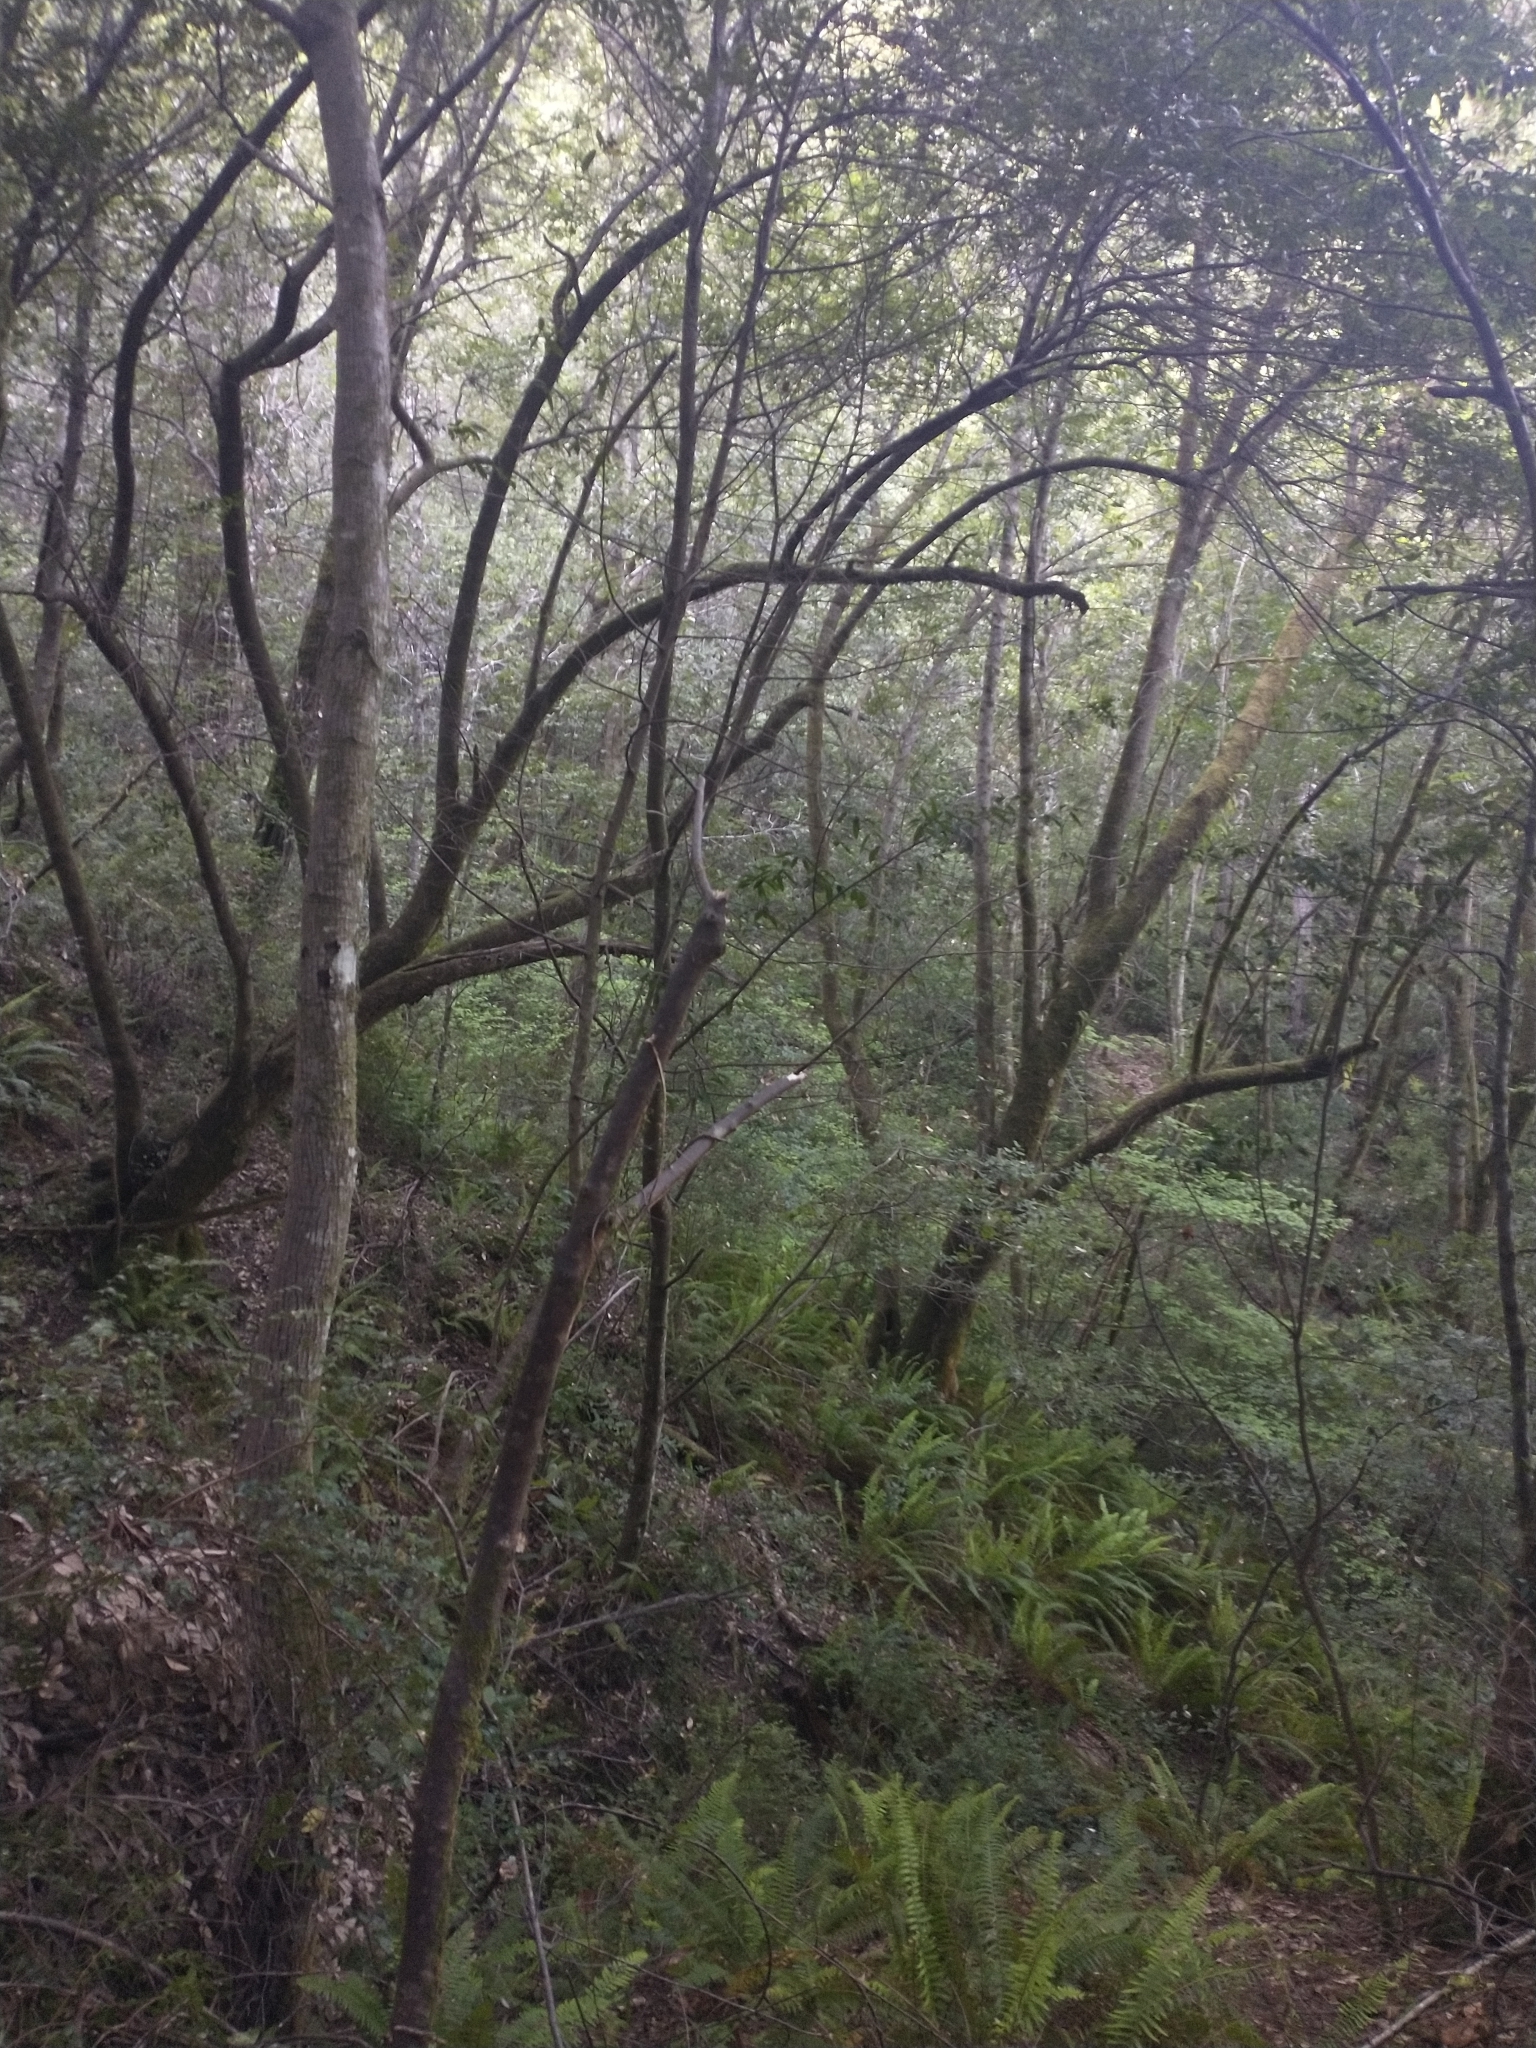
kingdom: Plantae
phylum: Tracheophyta
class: Magnoliopsida
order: Laurales
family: Lauraceae
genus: Umbellularia
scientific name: Umbellularia californica
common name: California bay
